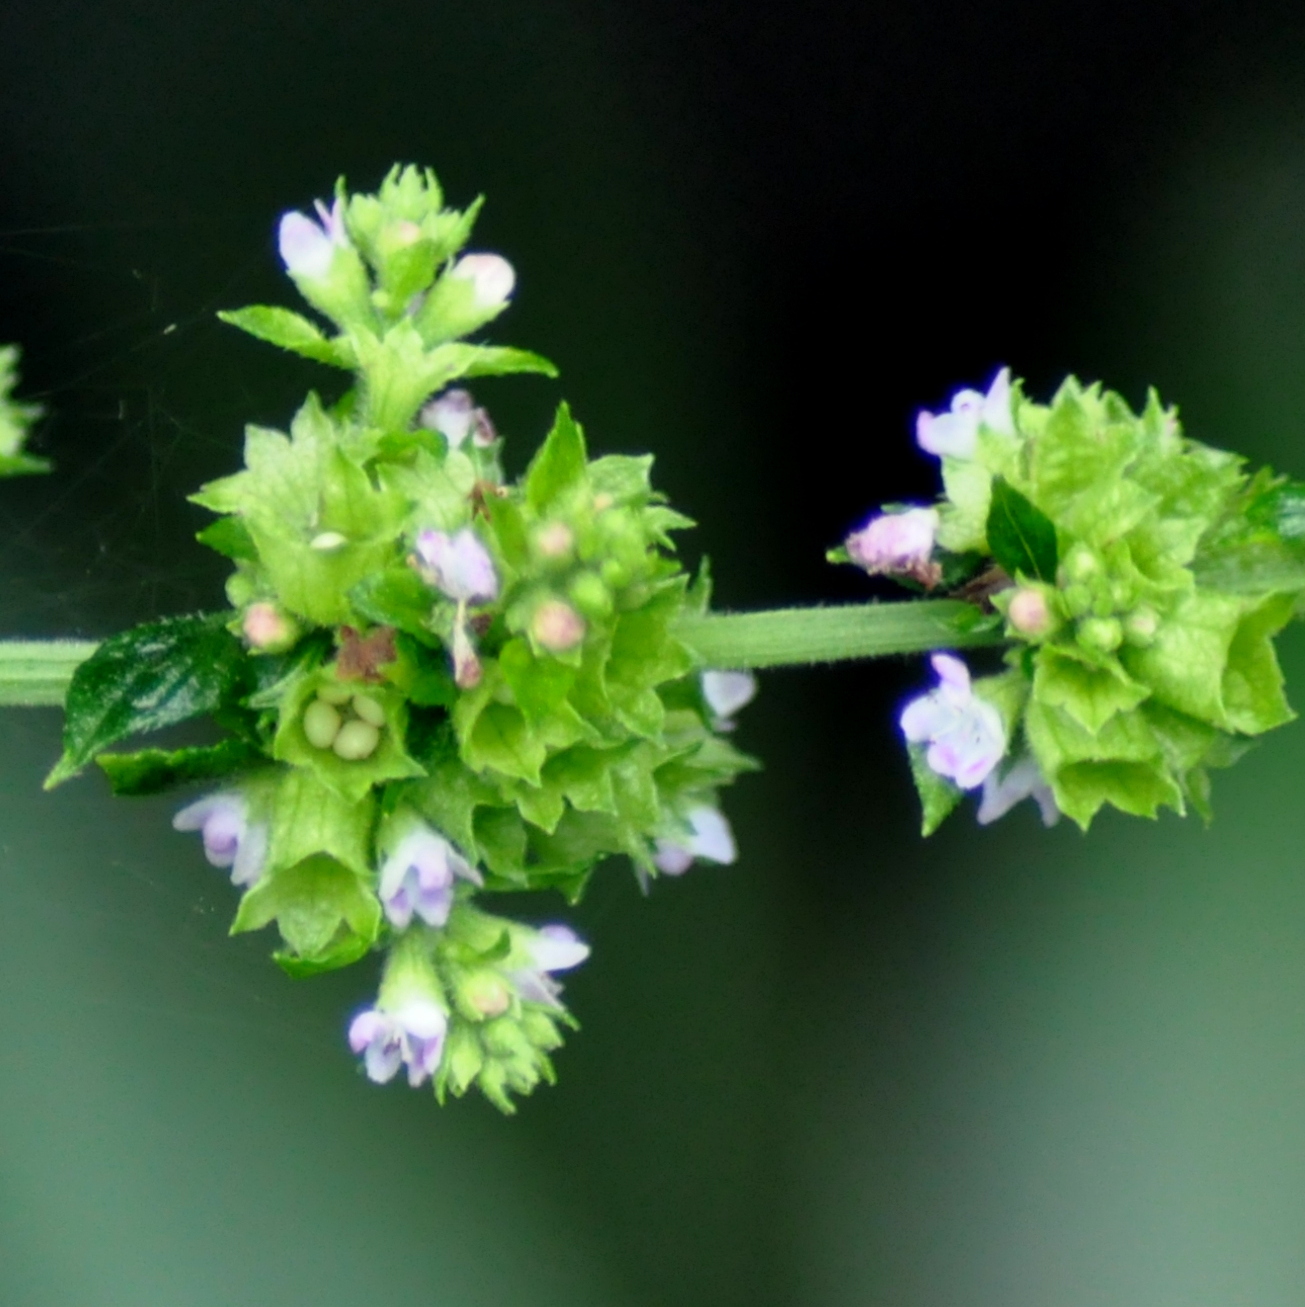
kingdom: Plantae
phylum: Tracheophyta
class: Magnoliopsida
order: Lamiales
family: Lamiaceae
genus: Condea
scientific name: Condea undulata
